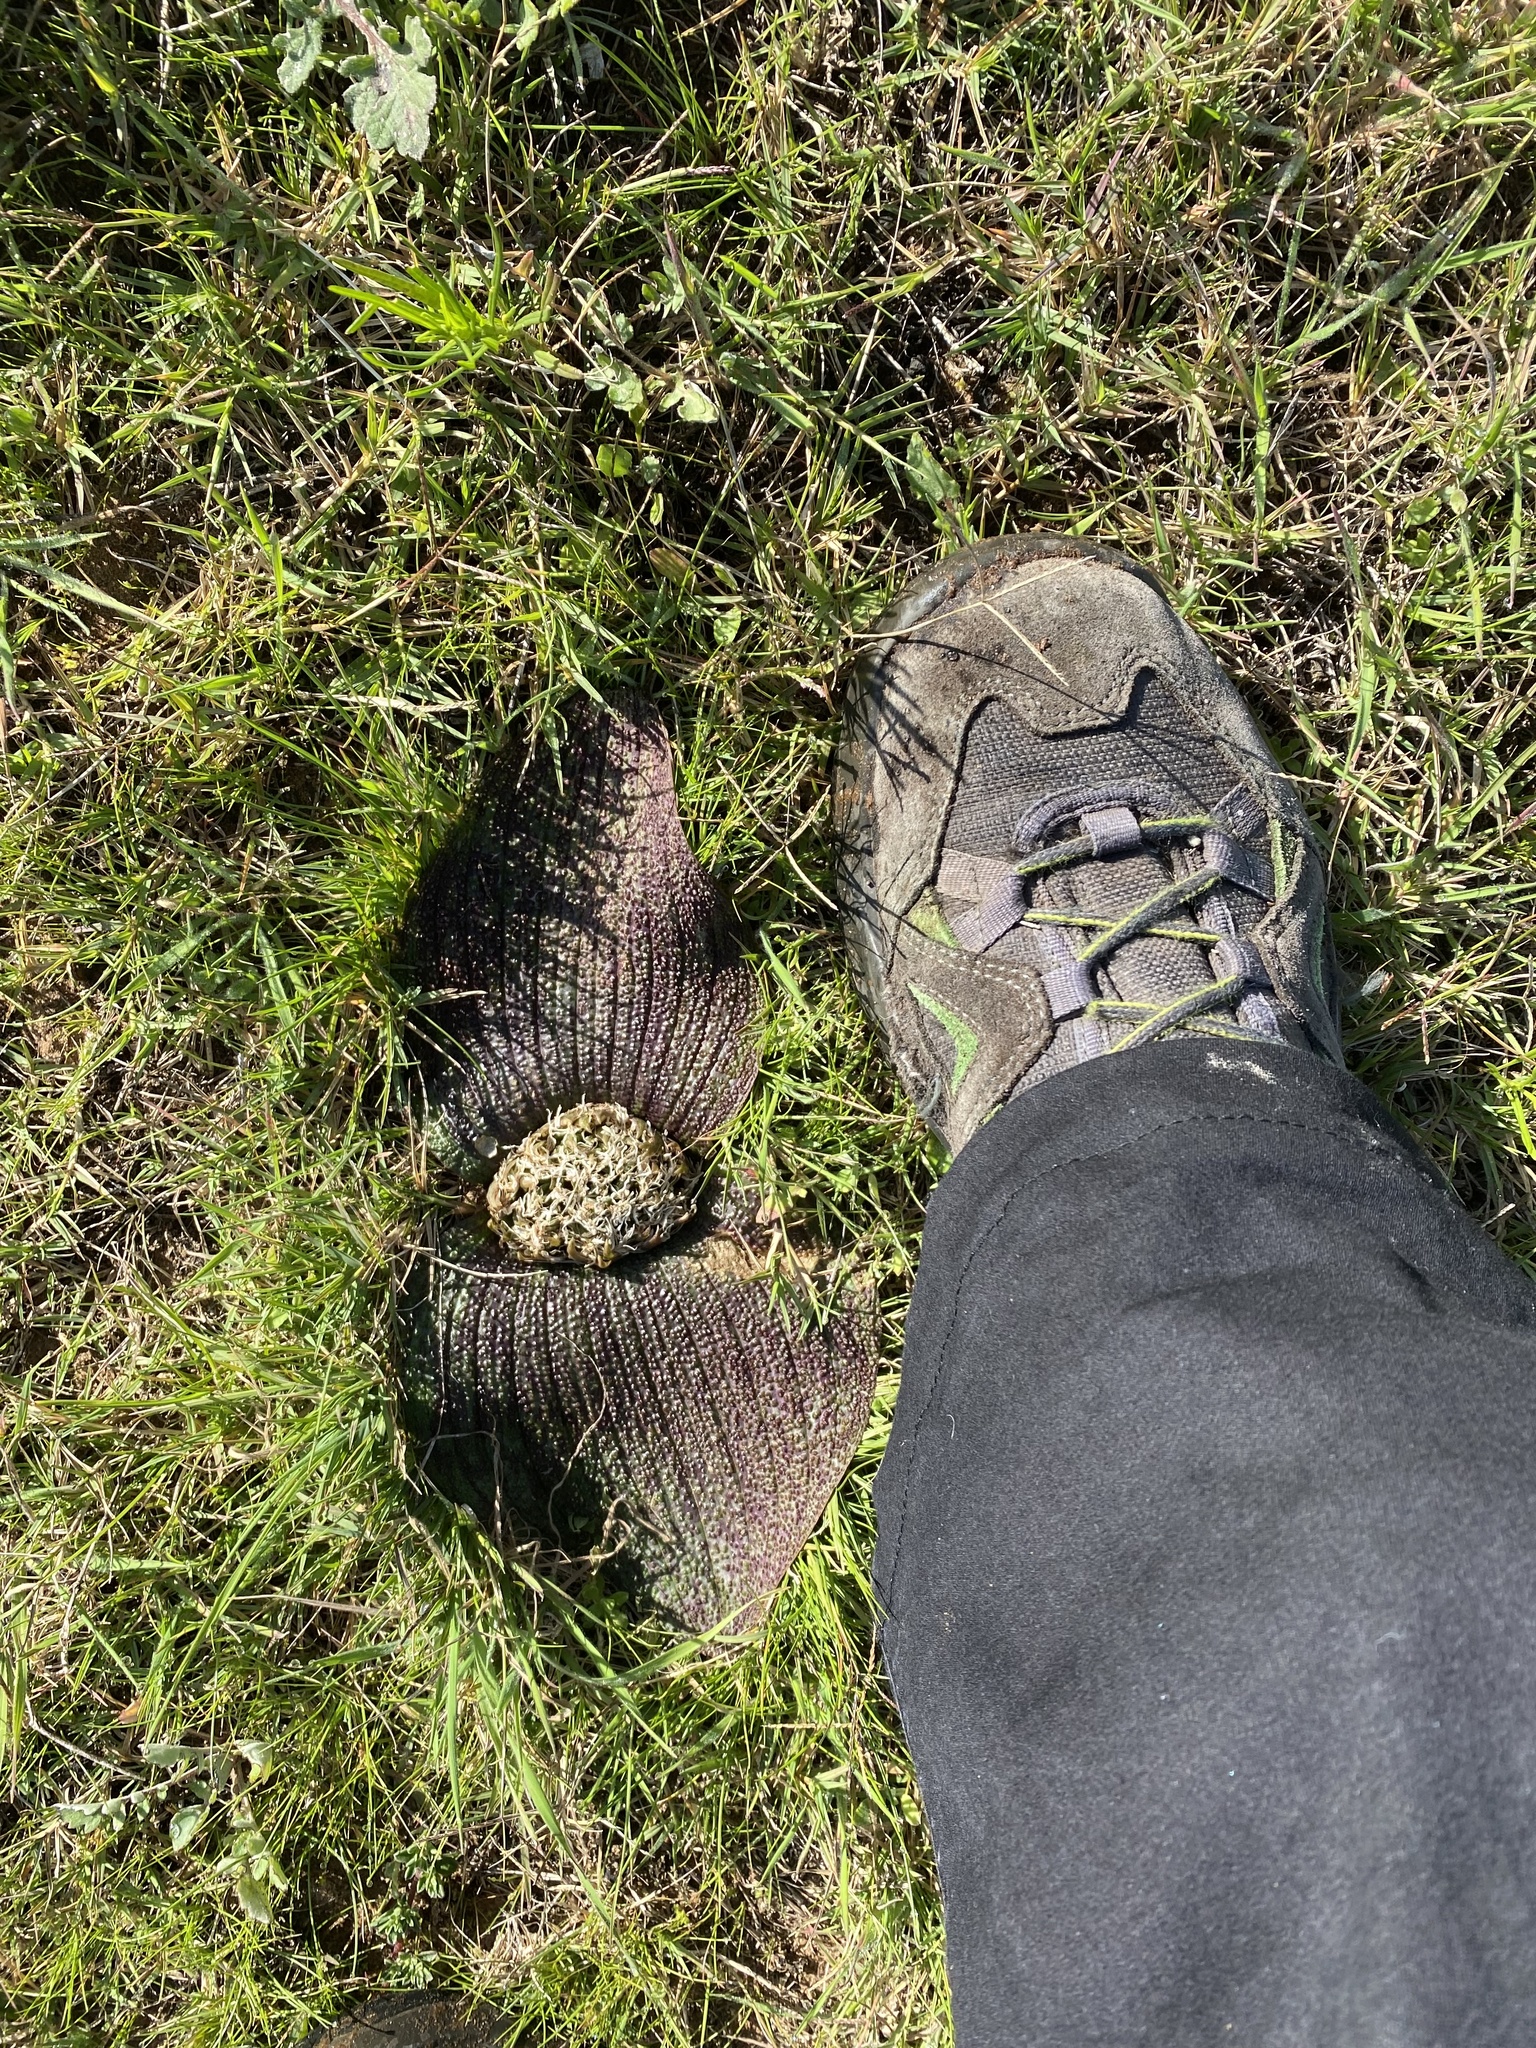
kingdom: Plantae
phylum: Tracheophyta
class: Liliopsida
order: Asparagales
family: Asparagaceae
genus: Massonia
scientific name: Massonia longipes
